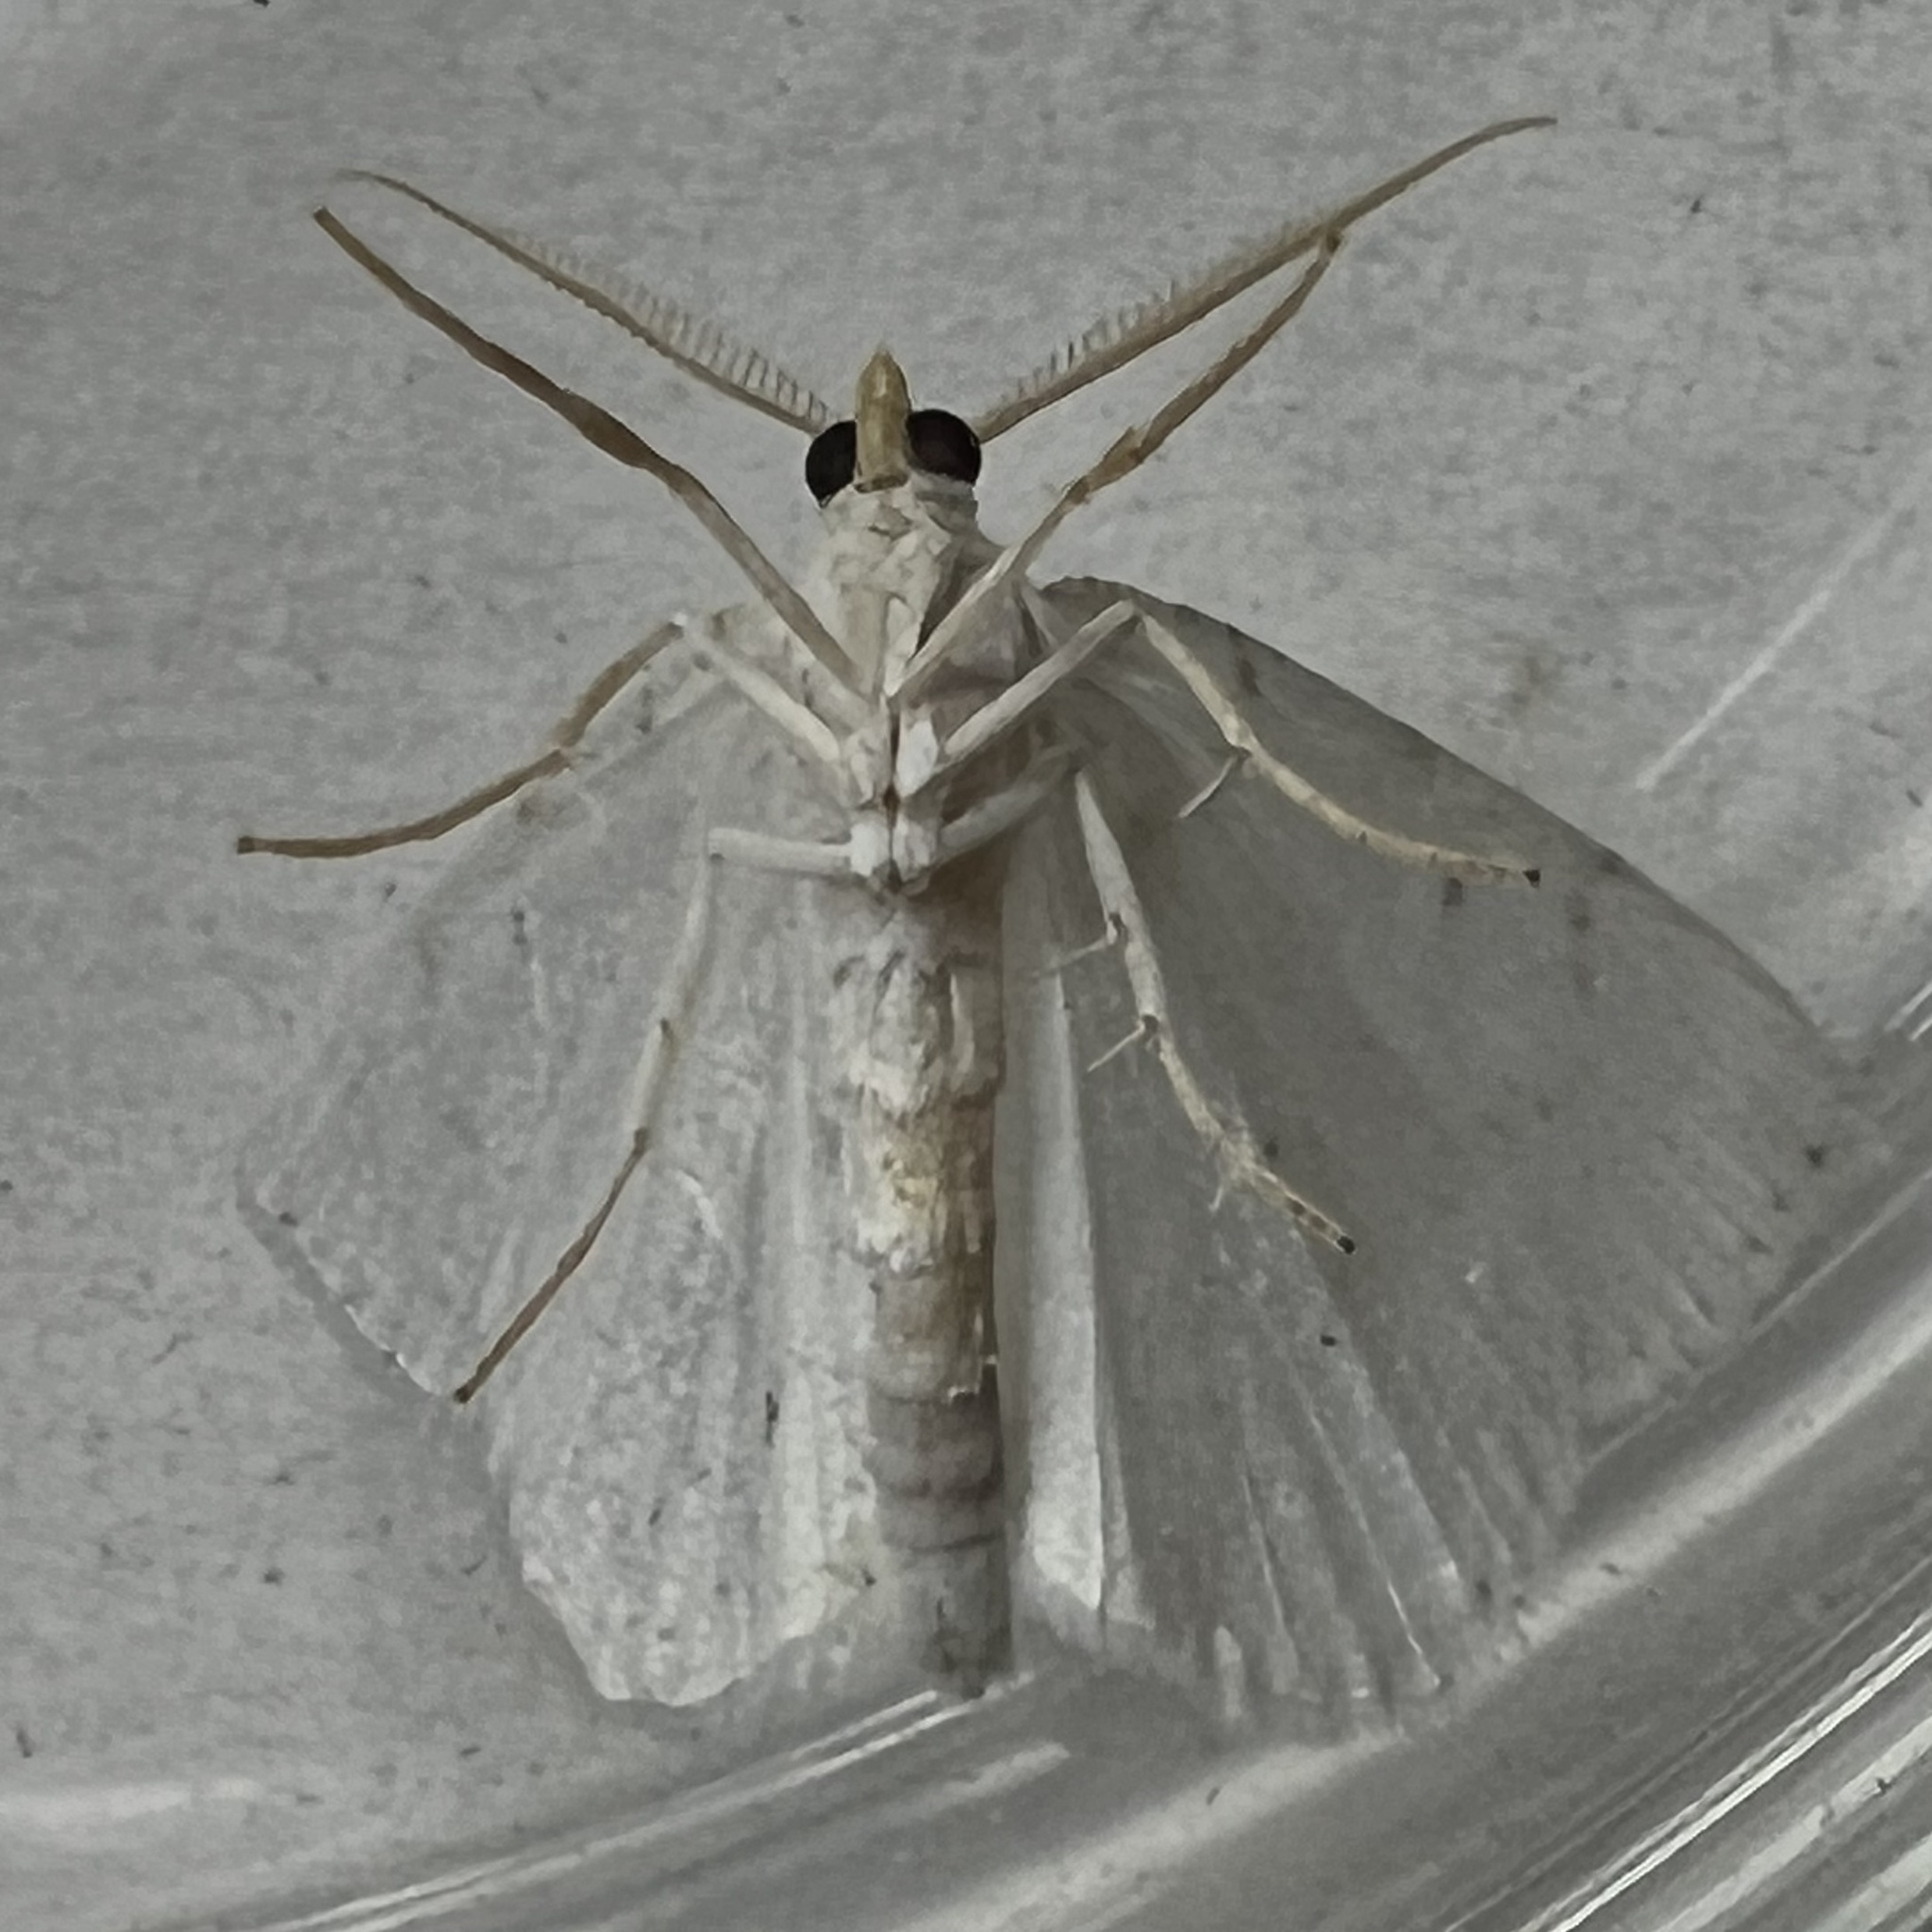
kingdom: Animalia
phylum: Arthropoda
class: Insecta
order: Lepidoptera
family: Geometridae
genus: Macaria
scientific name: Macaria pustularia
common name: Lesser maple spanworm moth
